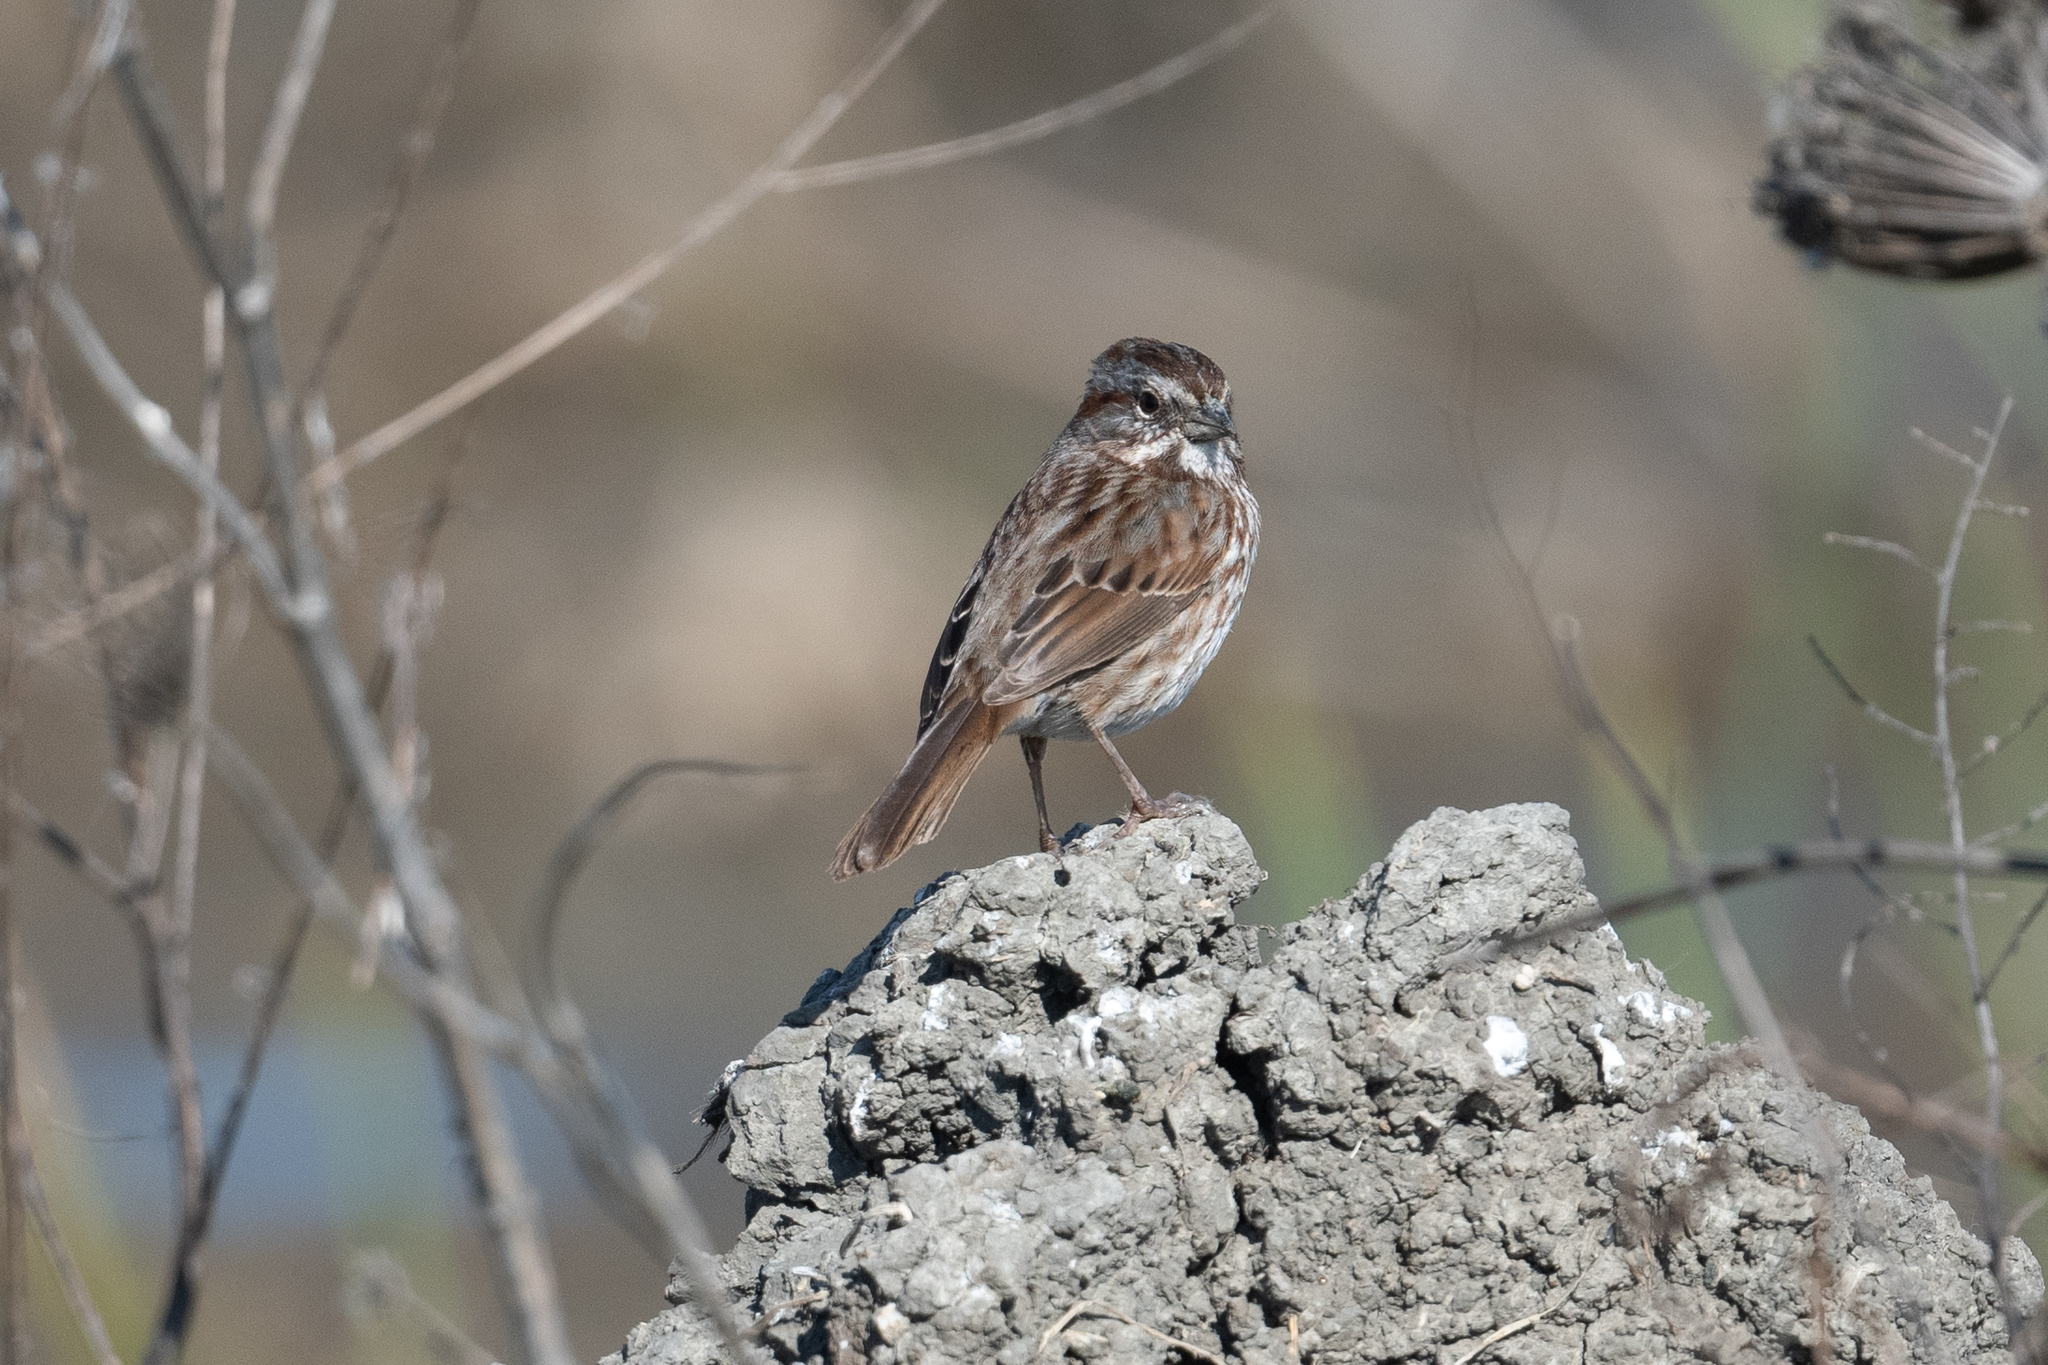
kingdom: Animalia
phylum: Chordata
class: Aves
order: Passeriformes
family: Passerellidae
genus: Melospiza
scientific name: Melospiza melodia
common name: Song sparrow
